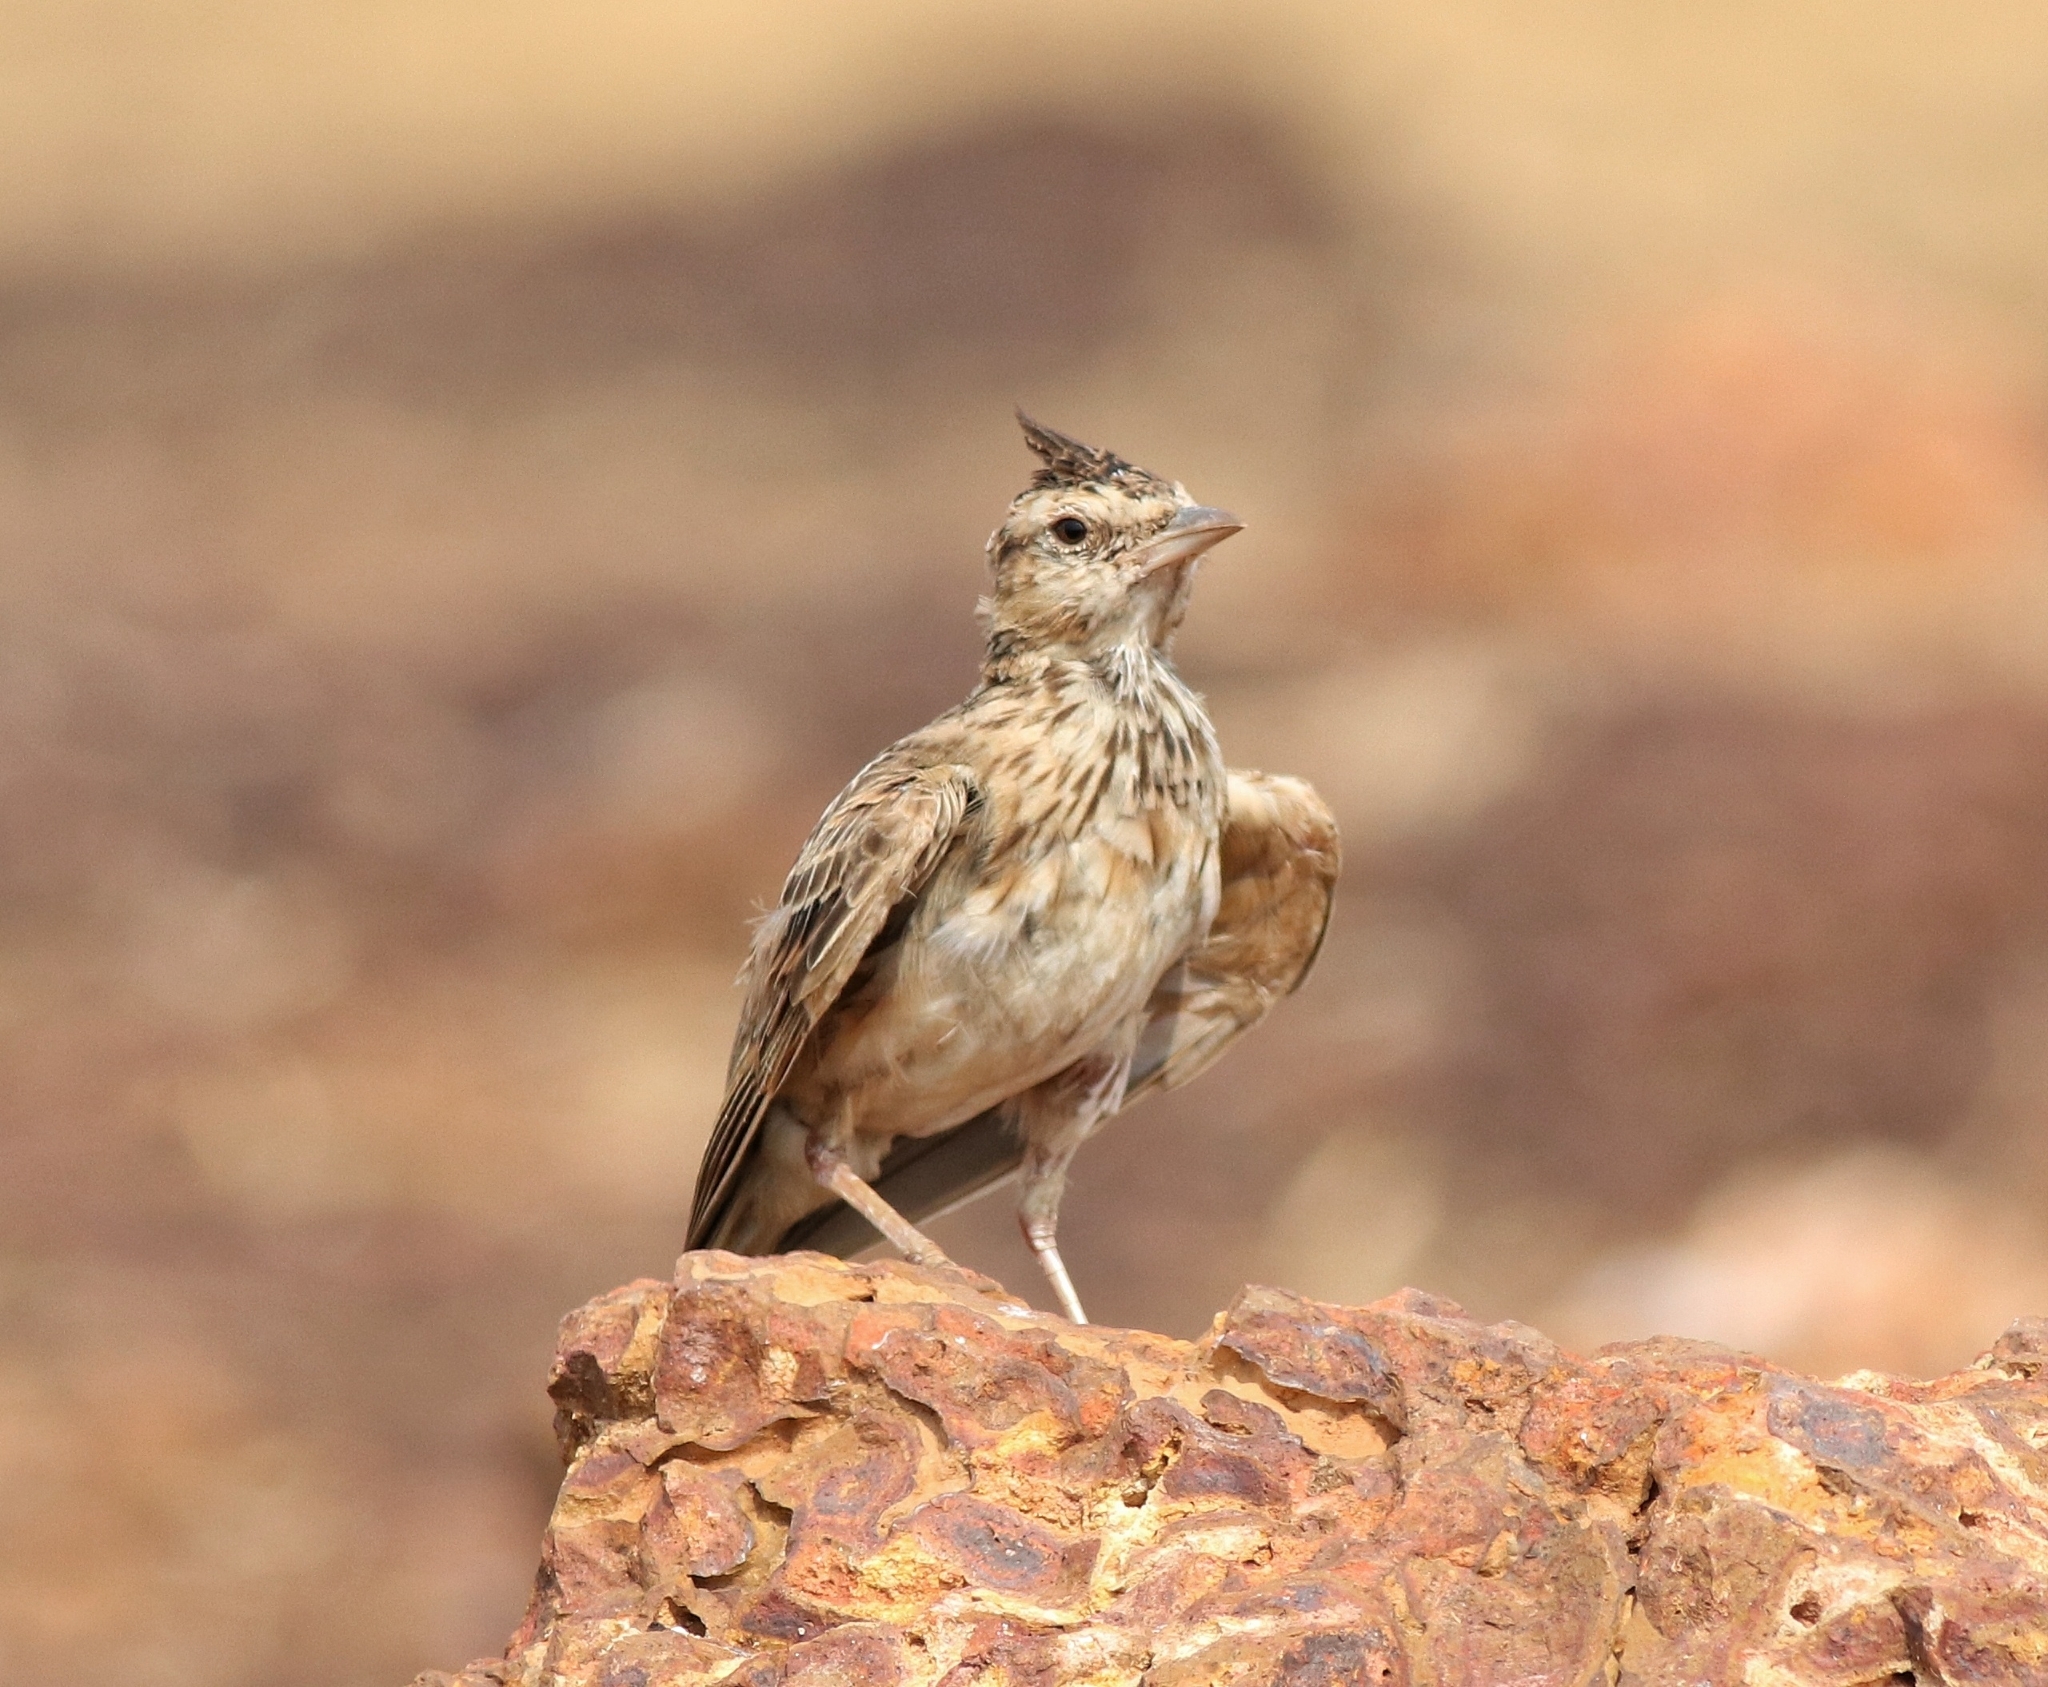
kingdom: Animalia
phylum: Chordata
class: Aves
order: Passeriformes
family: Alaudidae
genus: Galerida
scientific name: Galerida malabarica
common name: Malabar lark
